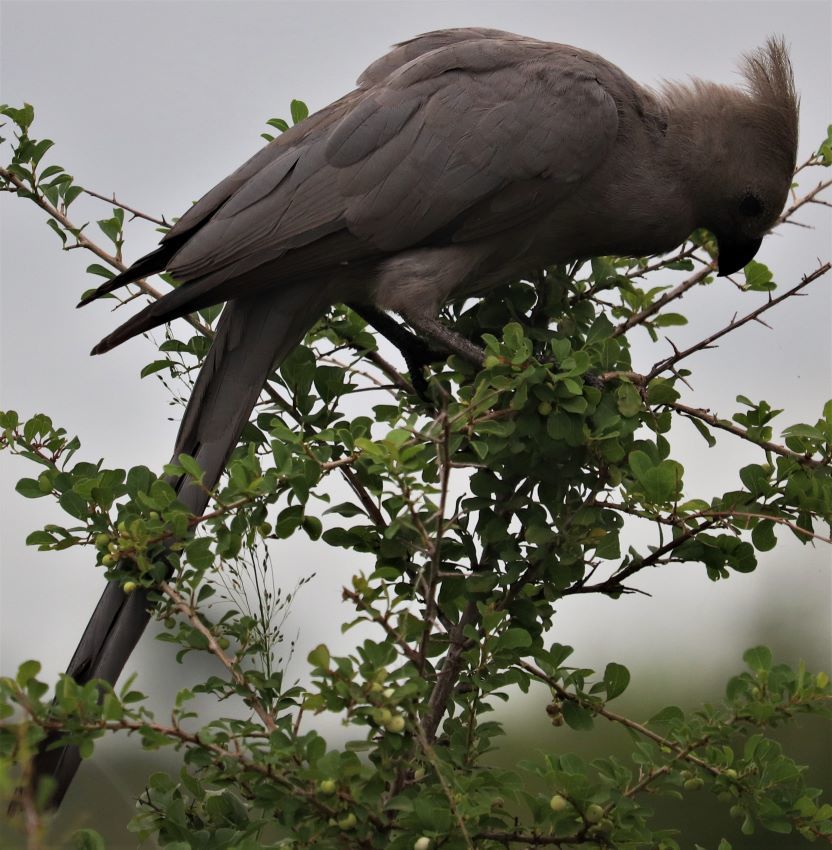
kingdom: Animalia
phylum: Chordata
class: Aves
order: Musophagiformes
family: Musophagidae
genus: Corythaixoides
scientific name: Corythaixoides concolor
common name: Grey go-away-bird
